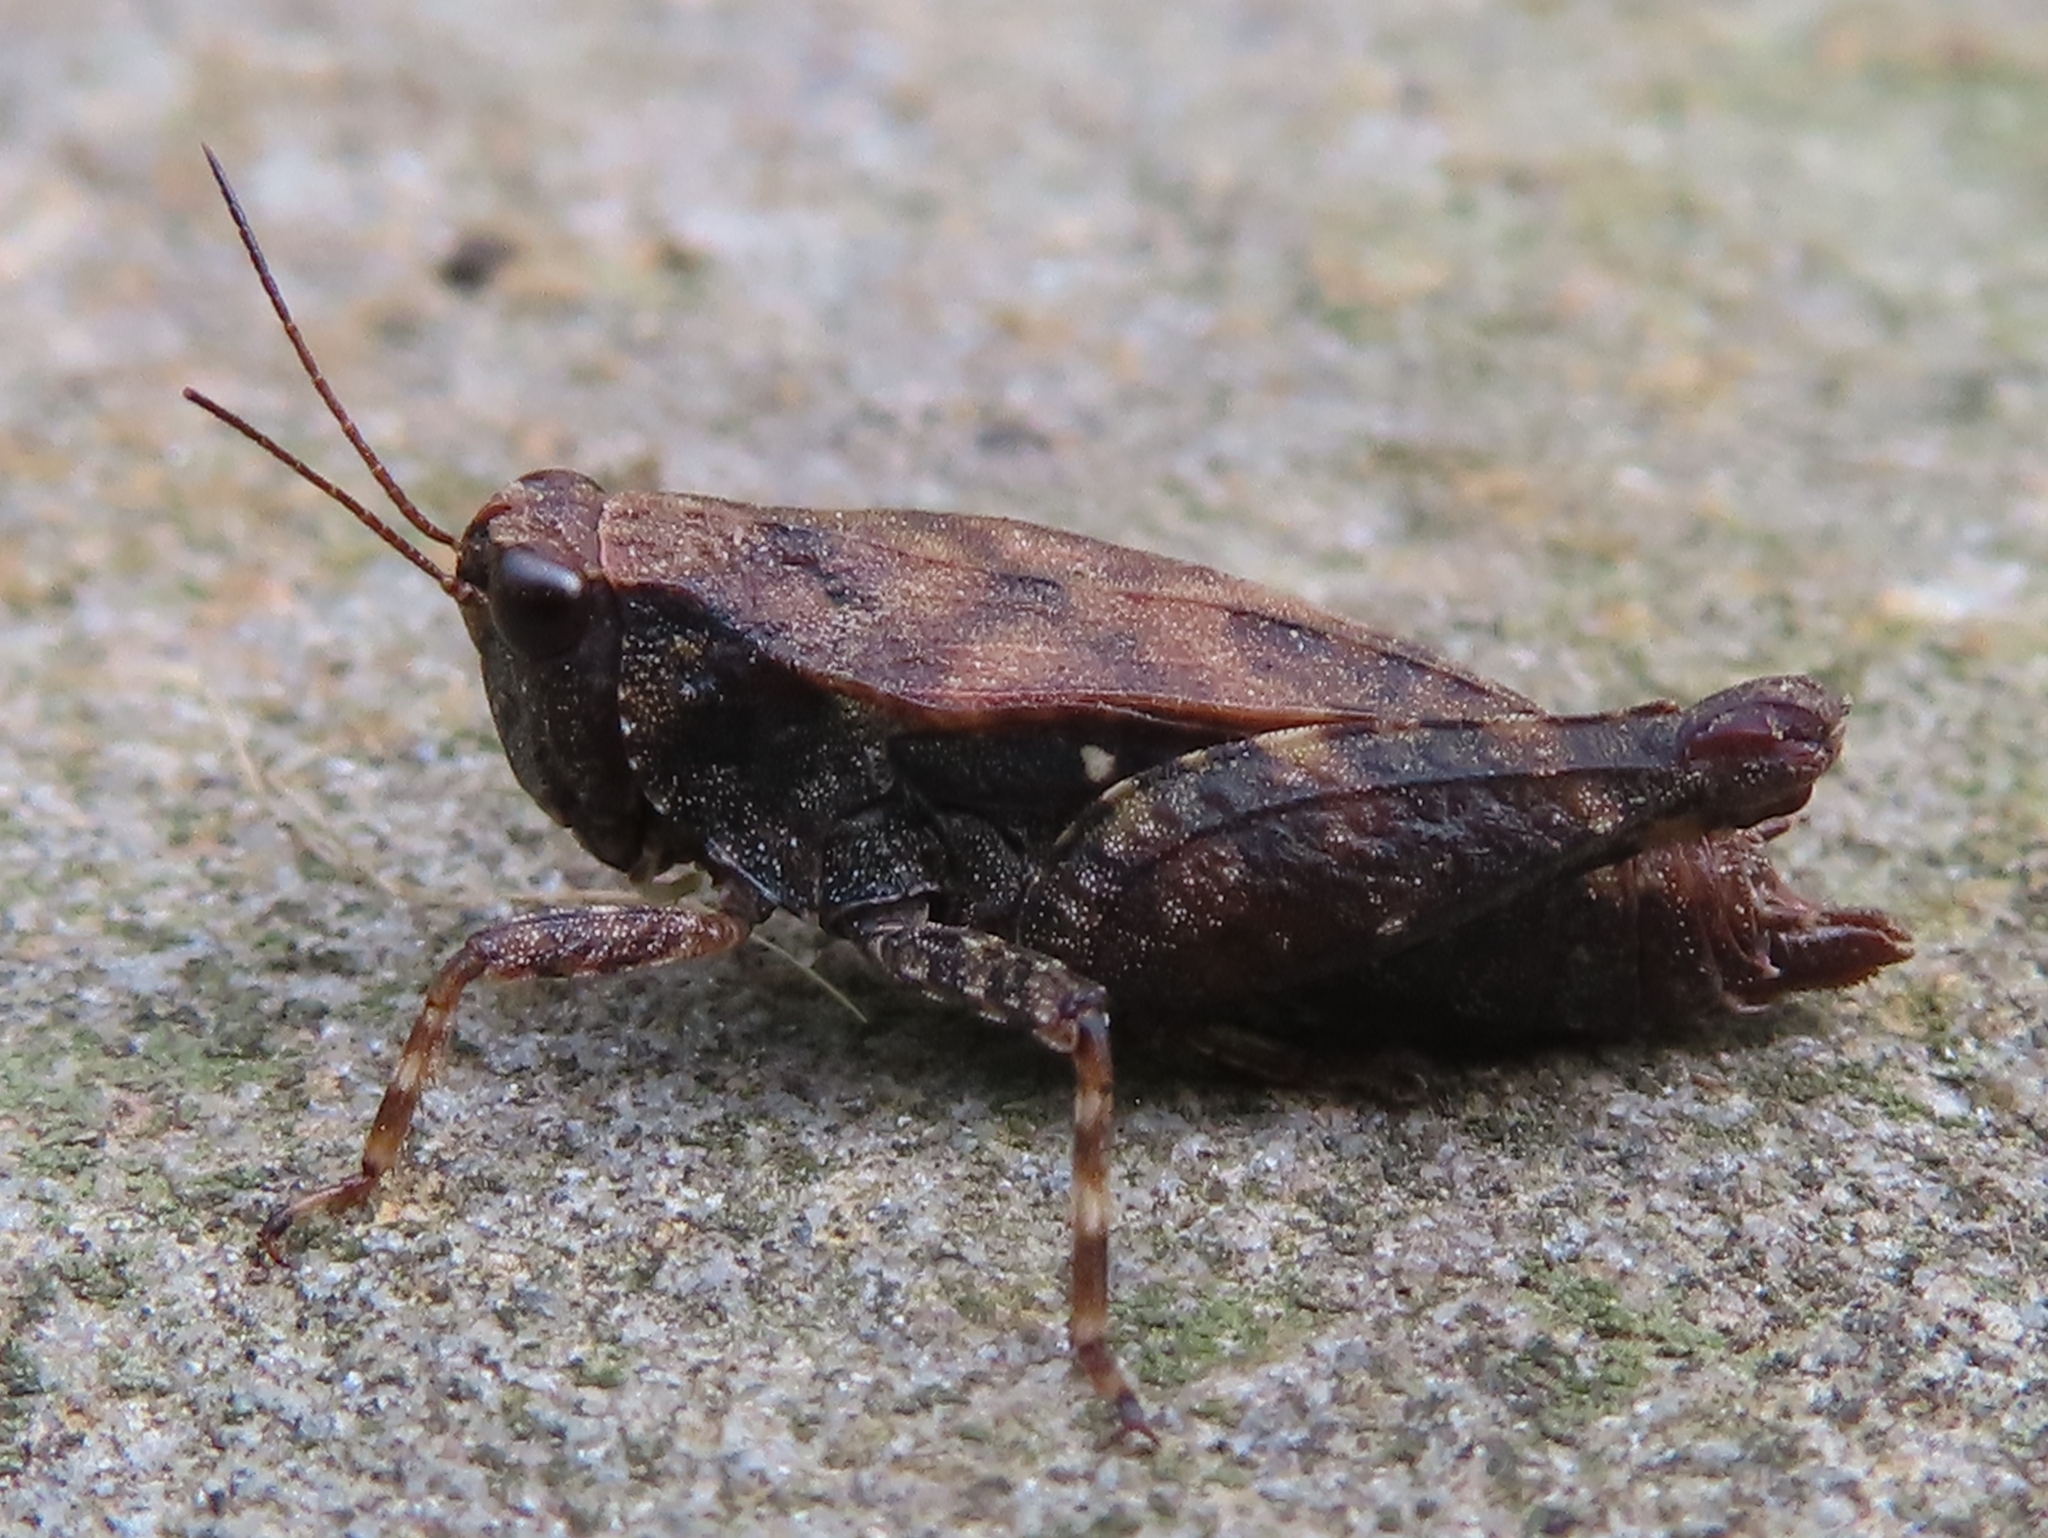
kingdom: Animalia
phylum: Arthropoda
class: Insecta
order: Orthoptera
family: Tetrigidae
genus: Tettigidea
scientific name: Tettigidea laterale
